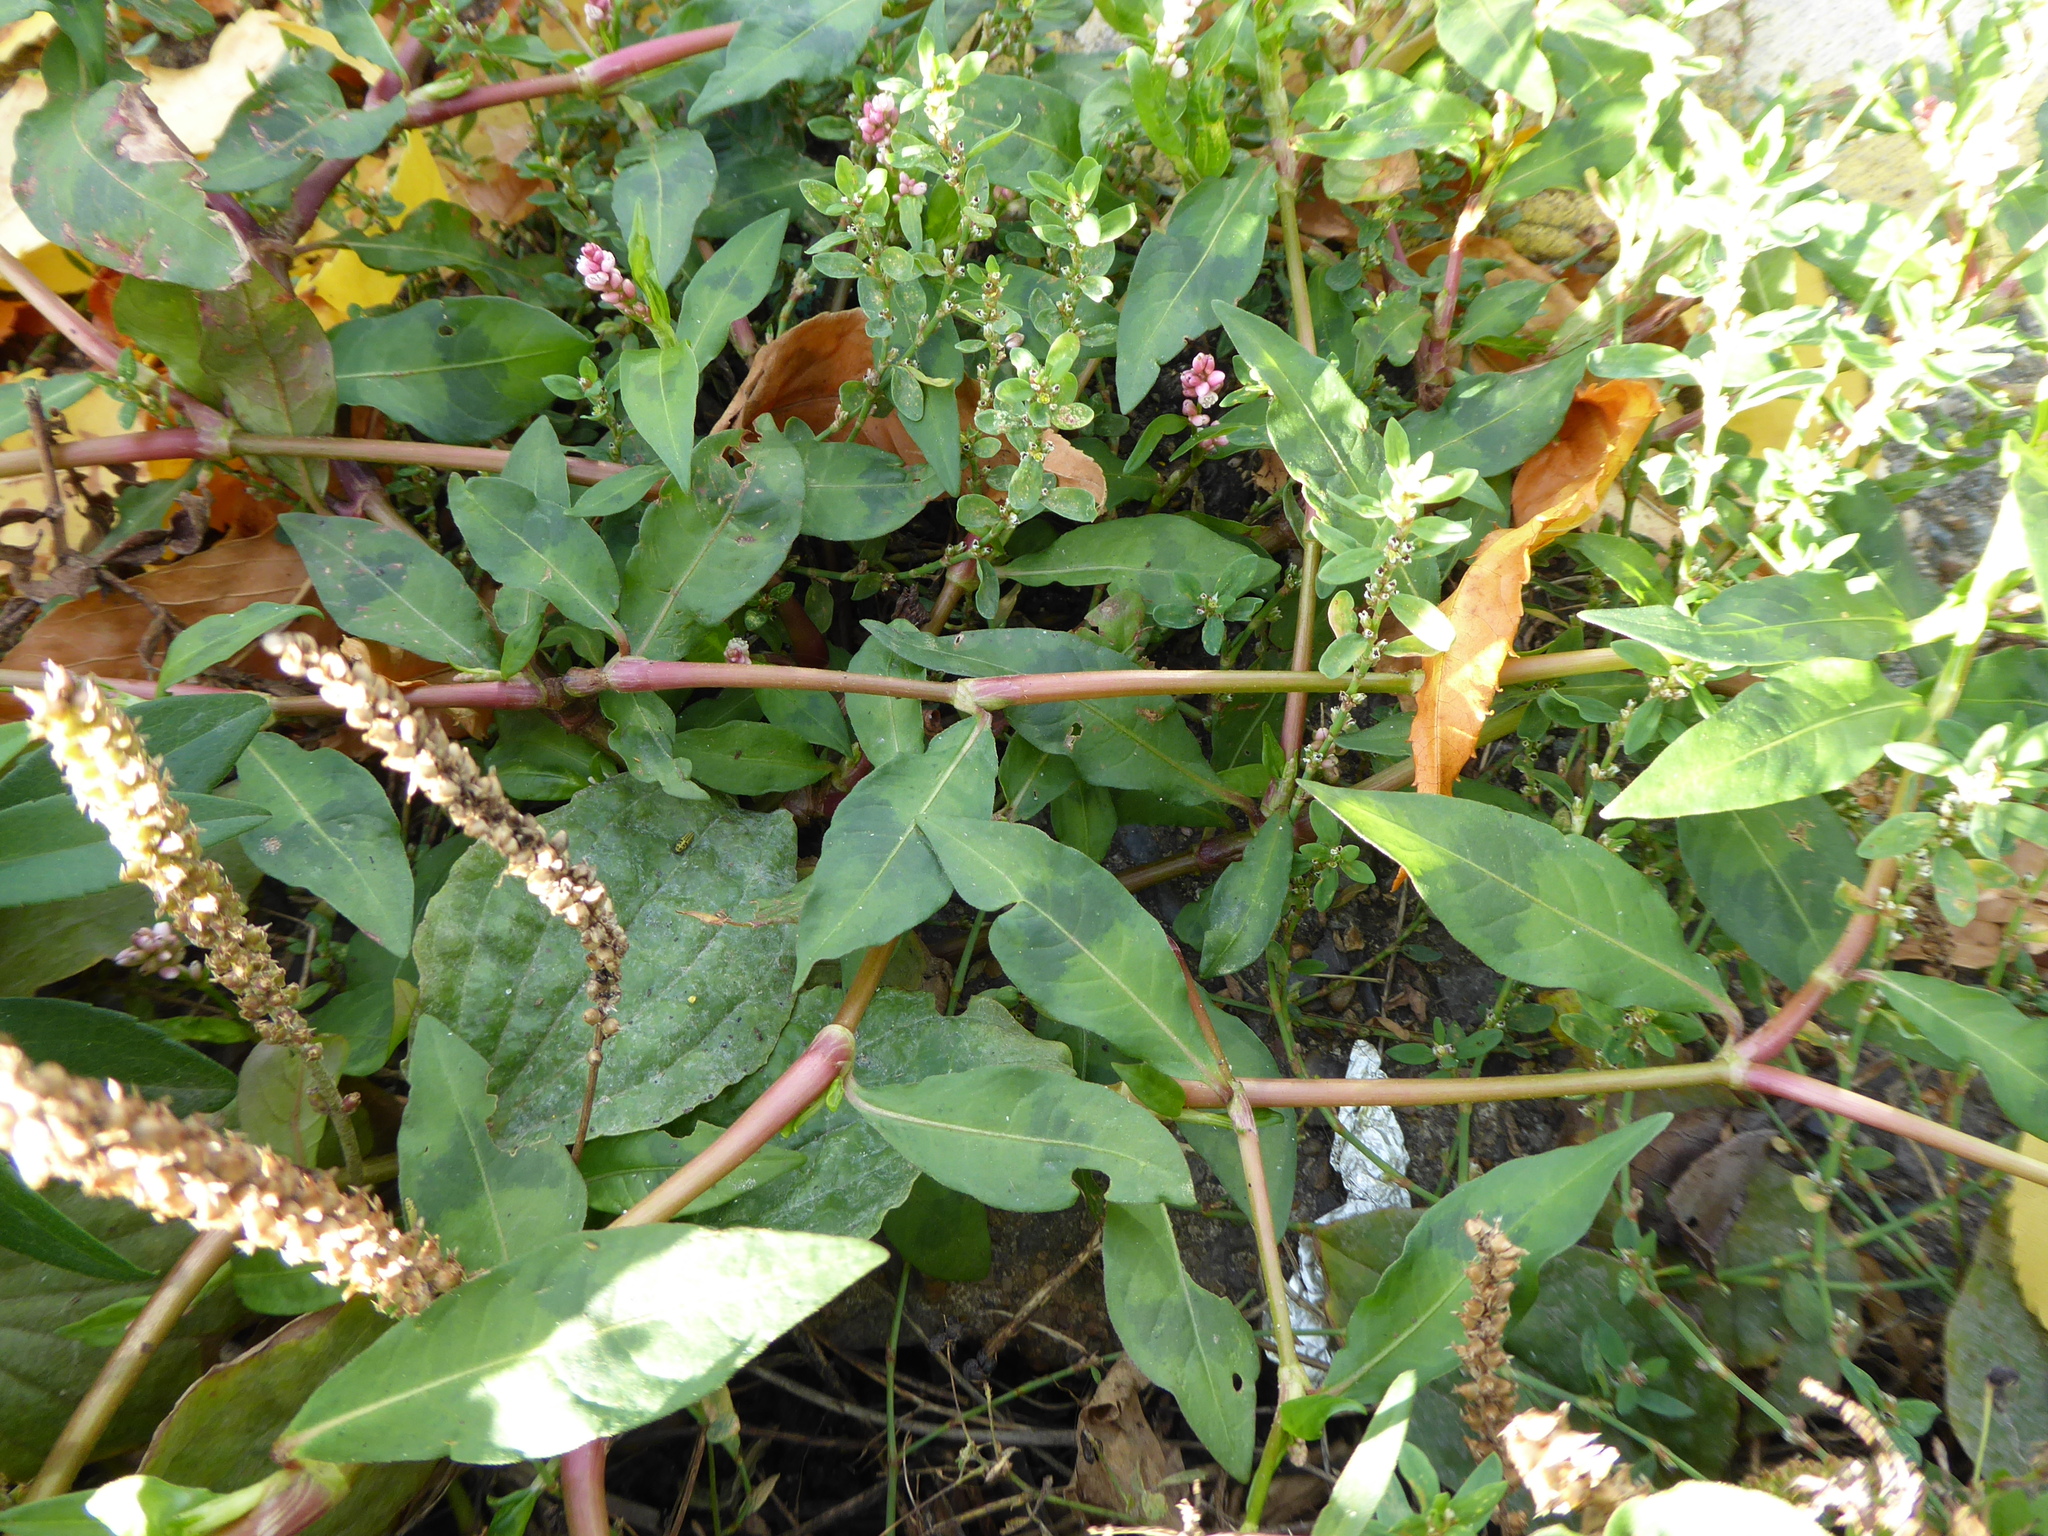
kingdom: Plantae
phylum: Tracheophyta
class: Magnoliopsida
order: Caryophyllales
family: Polygonaceae
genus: Persicaria
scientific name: Persicaria maculosa
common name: Redshank
